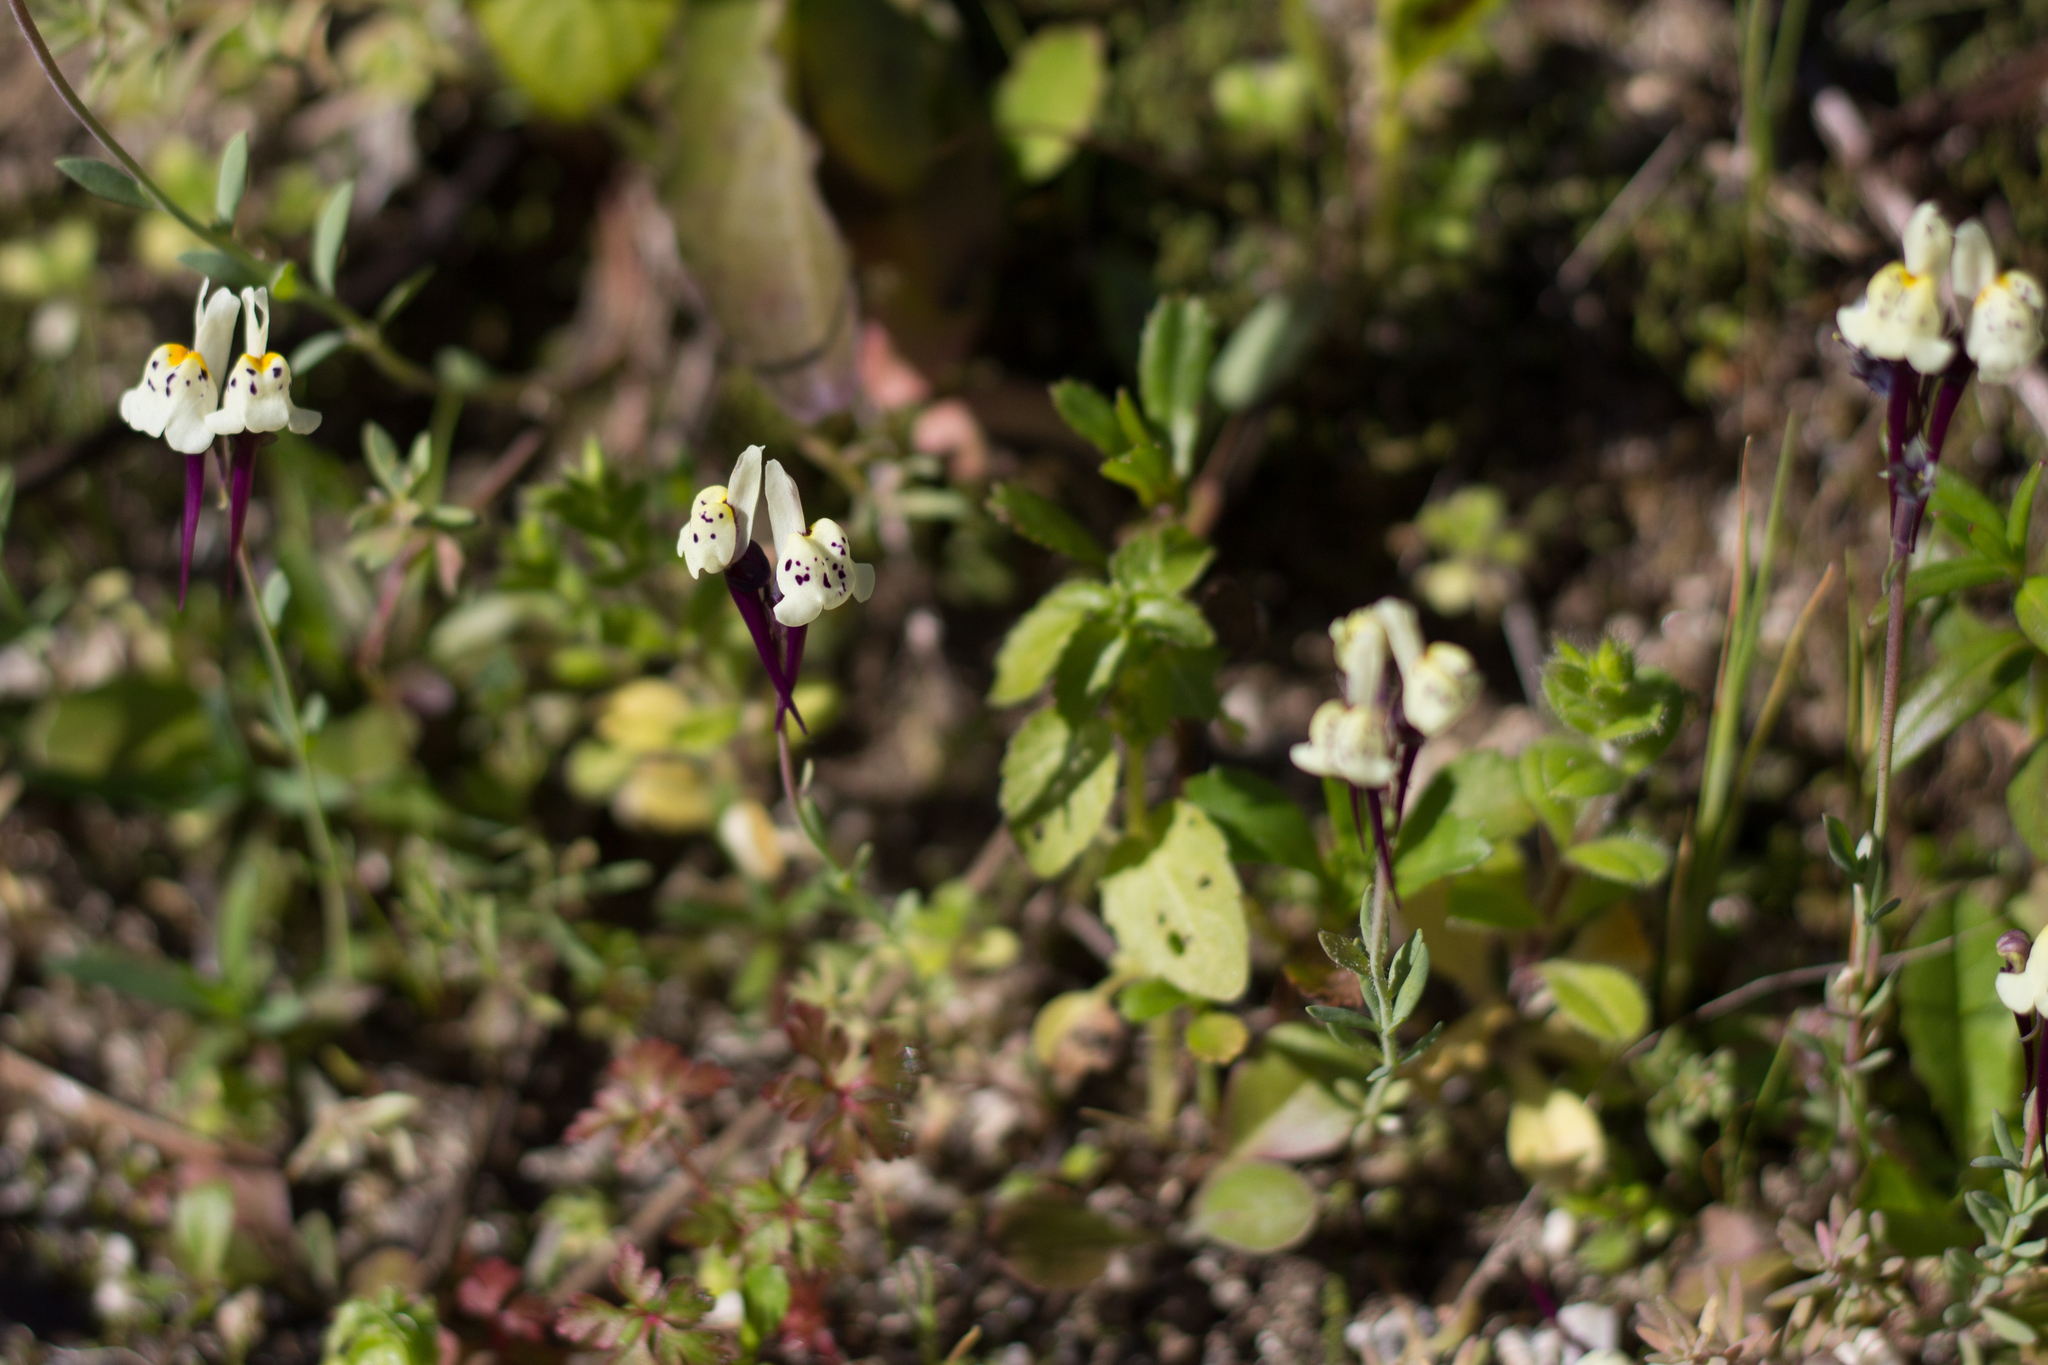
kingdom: Plantae
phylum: Tracheophyta
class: Magnoliopsida
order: Lamiales
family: Plantaginaceae
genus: Linaria
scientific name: Linaria amethystea
